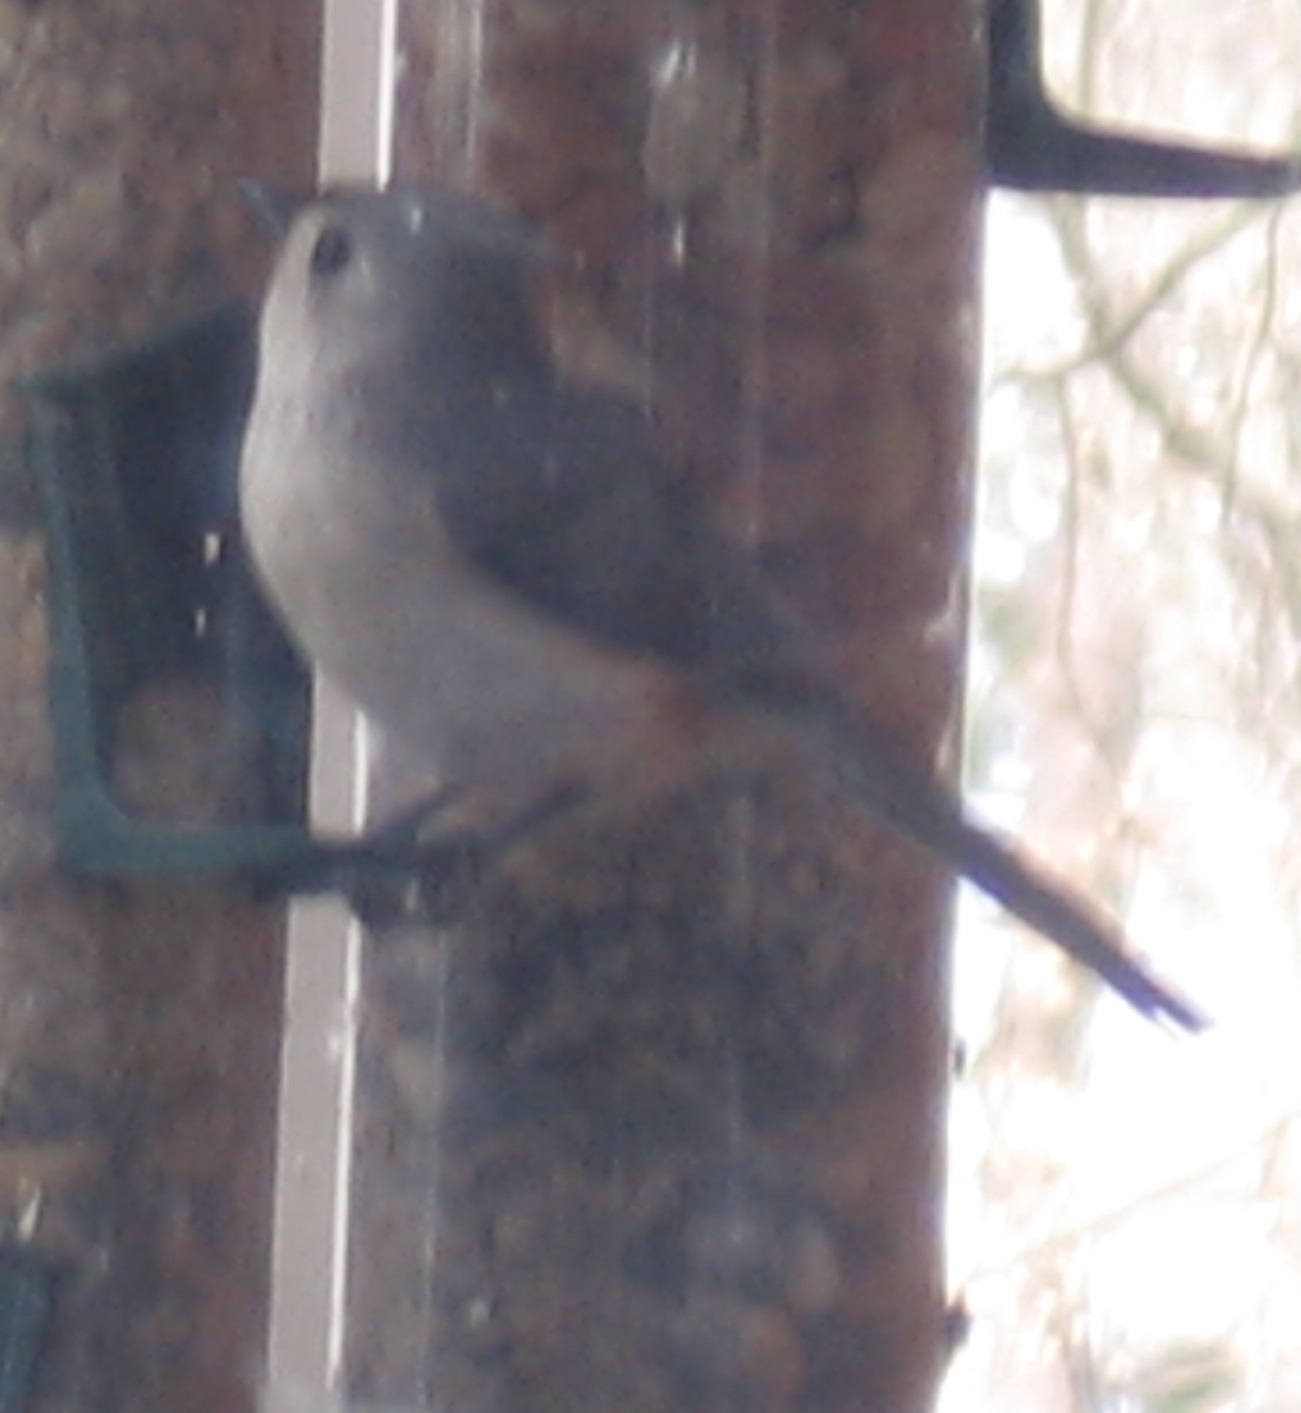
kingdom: Animalia
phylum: Chordata
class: Aves
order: Passeriformes
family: Paridae
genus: Baeolophus
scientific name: Baeolophus bicolor
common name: Tufted titmouse
